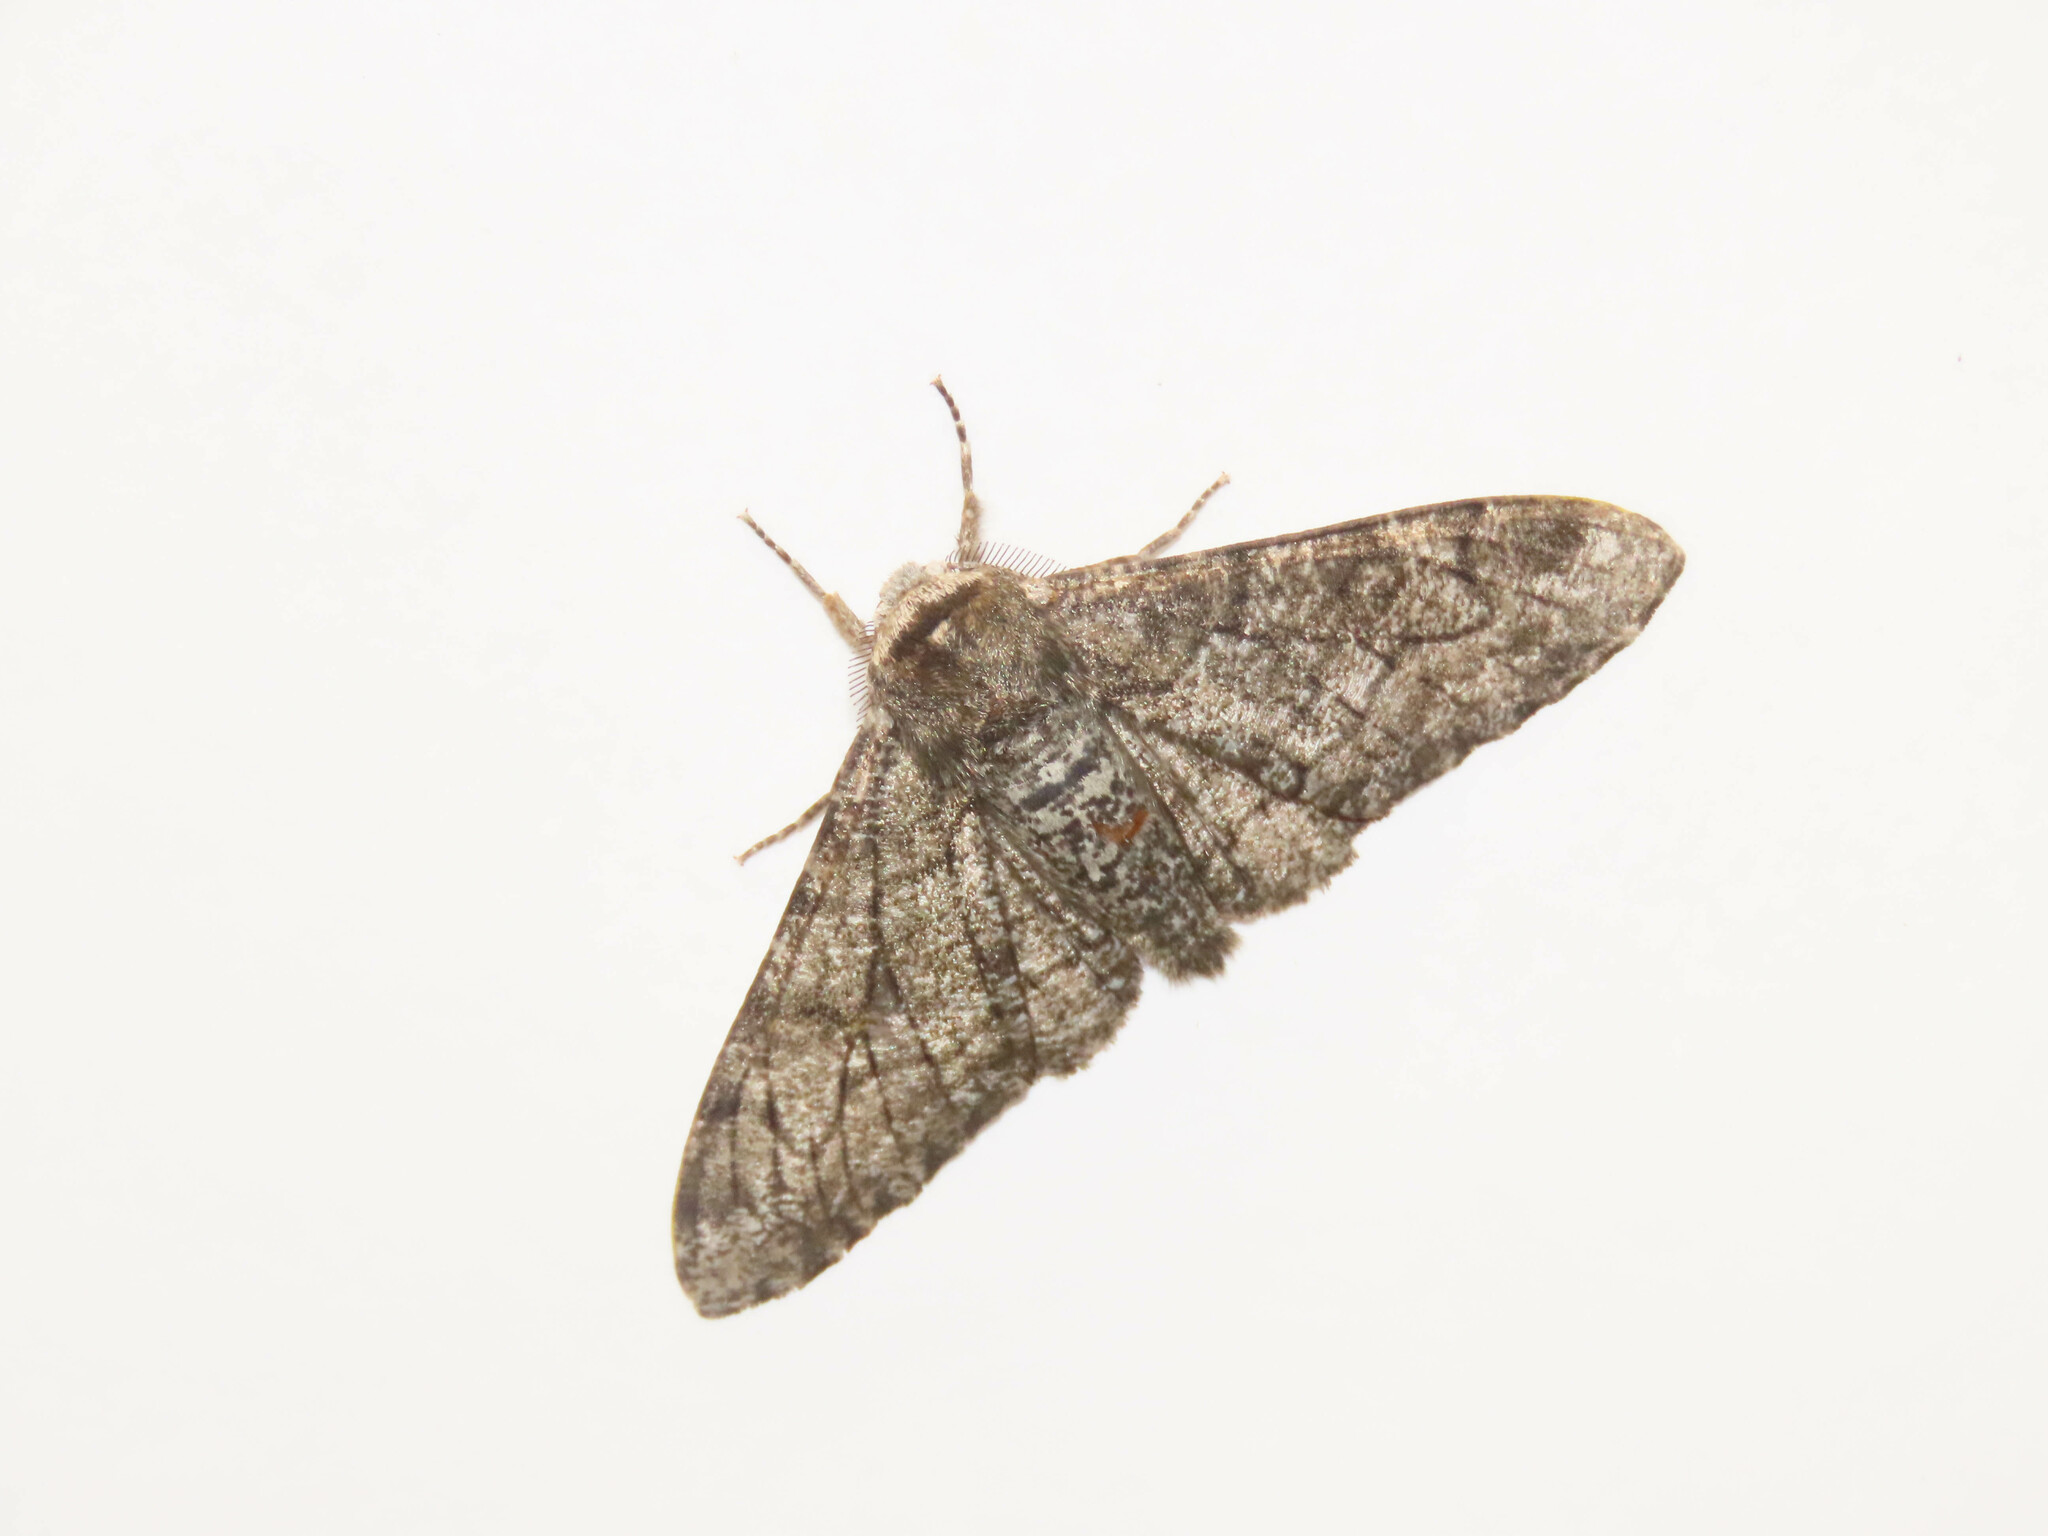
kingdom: Animalia
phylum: Arthropoda
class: Insecta
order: Lepidoptera
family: Geometridae
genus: Biston
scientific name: Biston betularia
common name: Peppered moth
